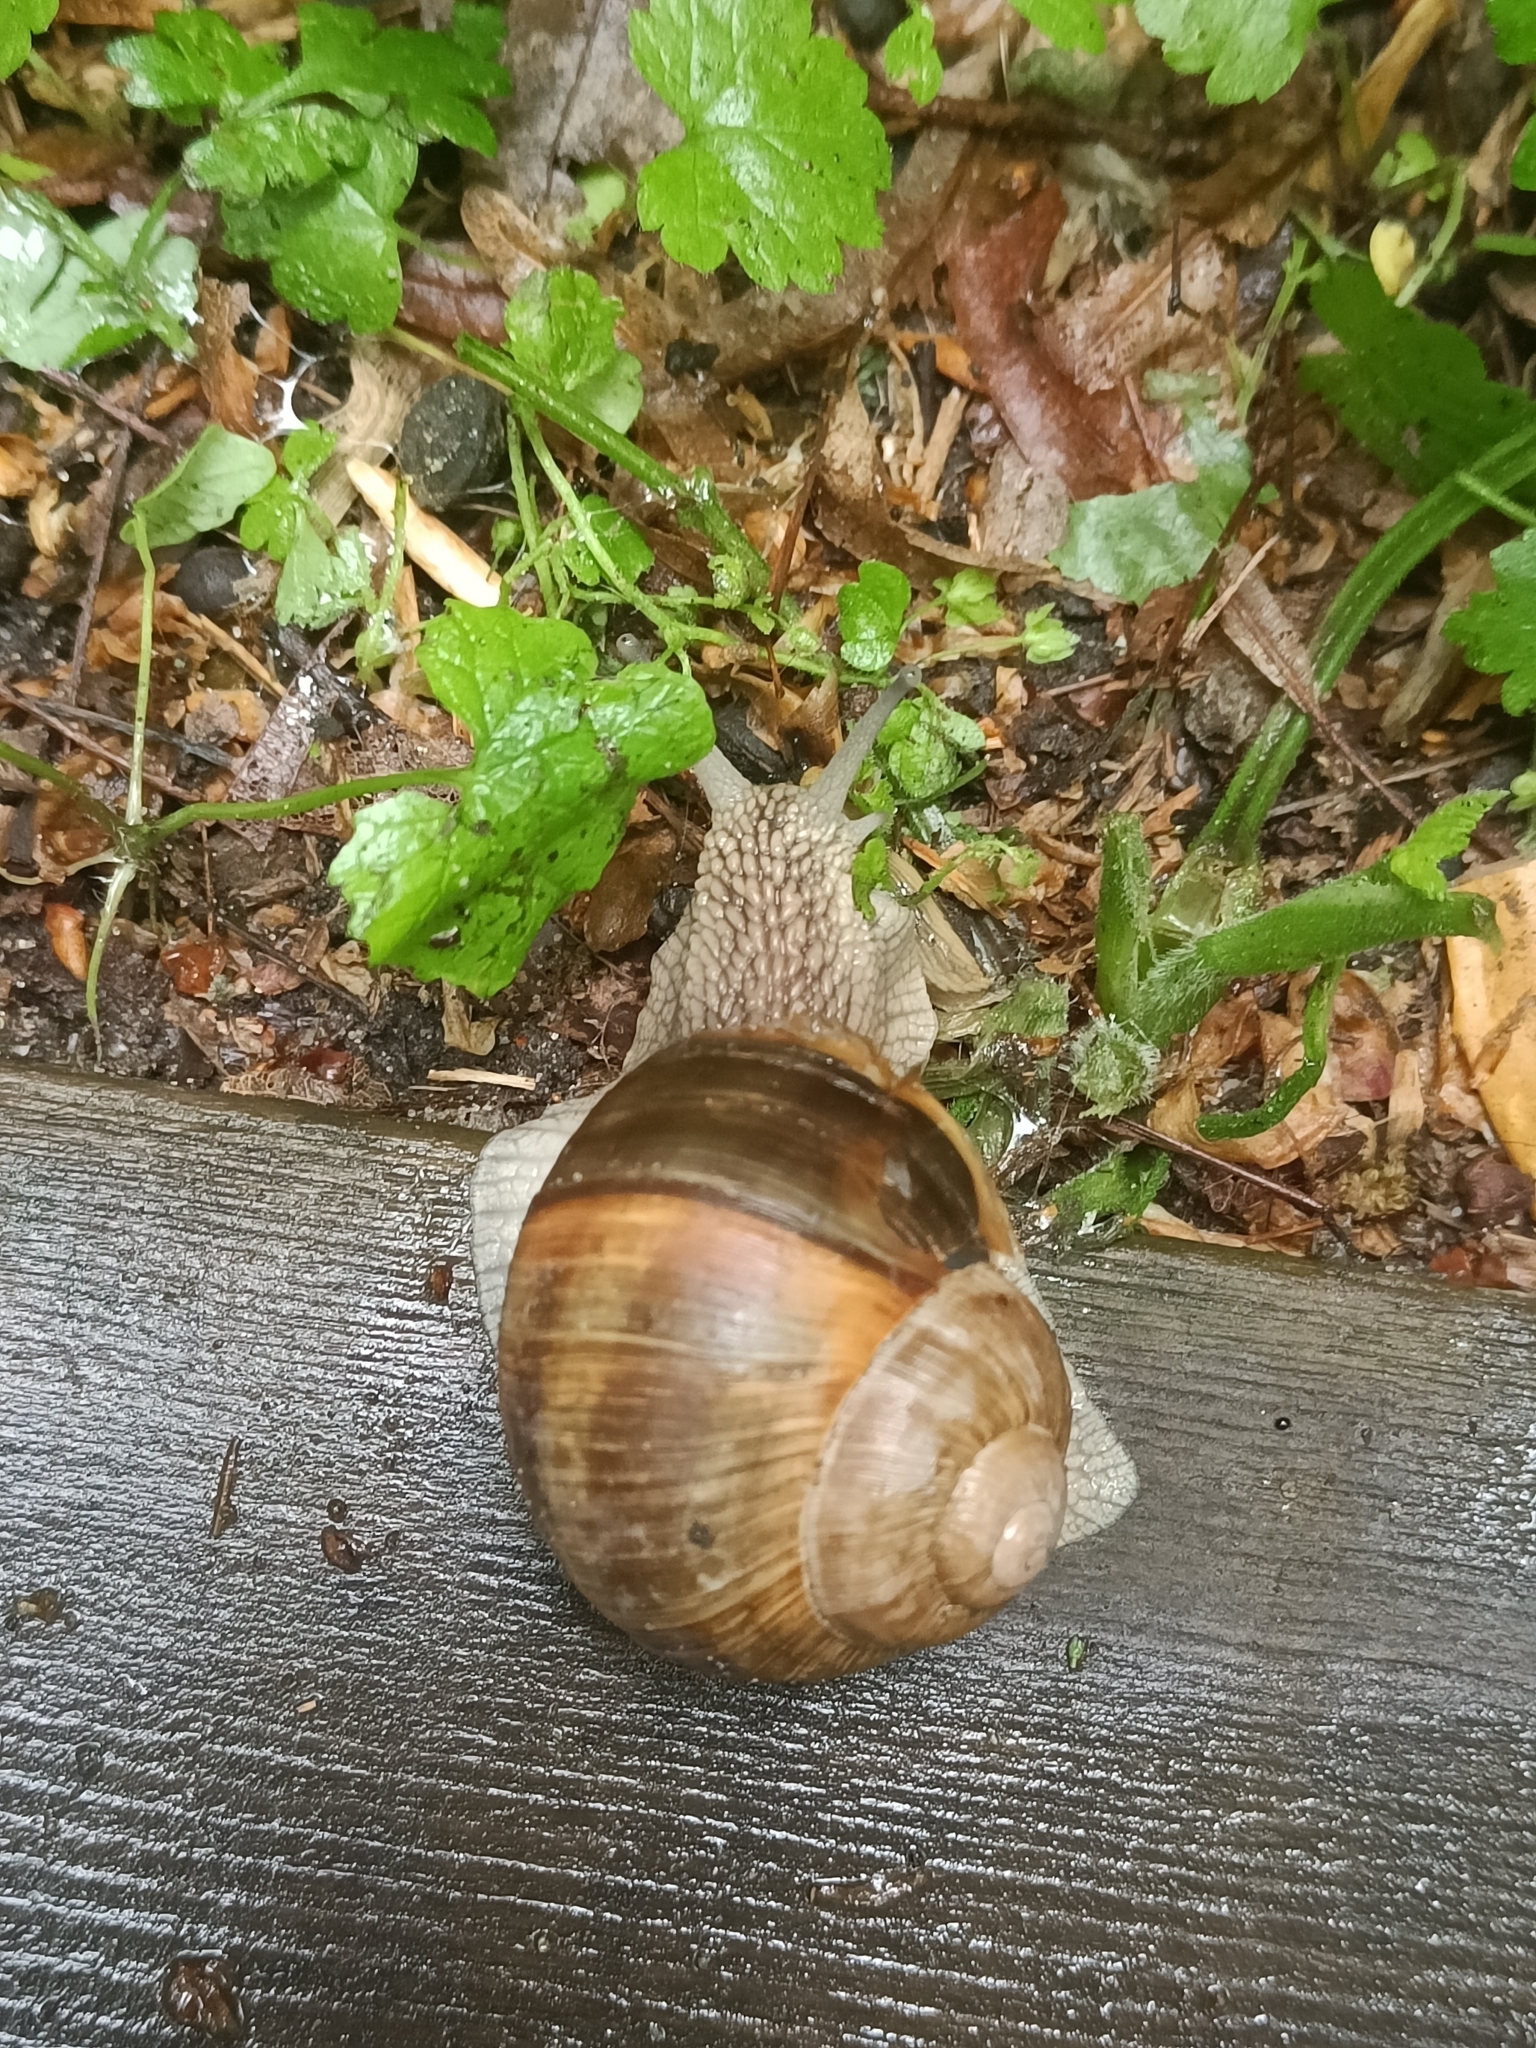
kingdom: Animalia
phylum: Mollusca
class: Gastropoda
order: Stylommatophora
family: Helicidae
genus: Helix
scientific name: Helix pomatia
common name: Roman snail
